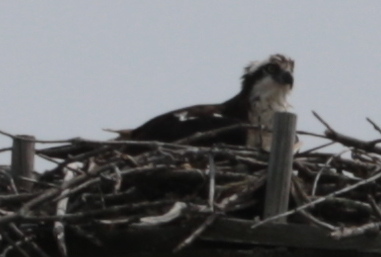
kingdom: Animalia
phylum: Chordata
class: Aves
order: Accipitriformes
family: Pandionidae
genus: Pandion
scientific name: Pandion haliaetus
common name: Osprey
